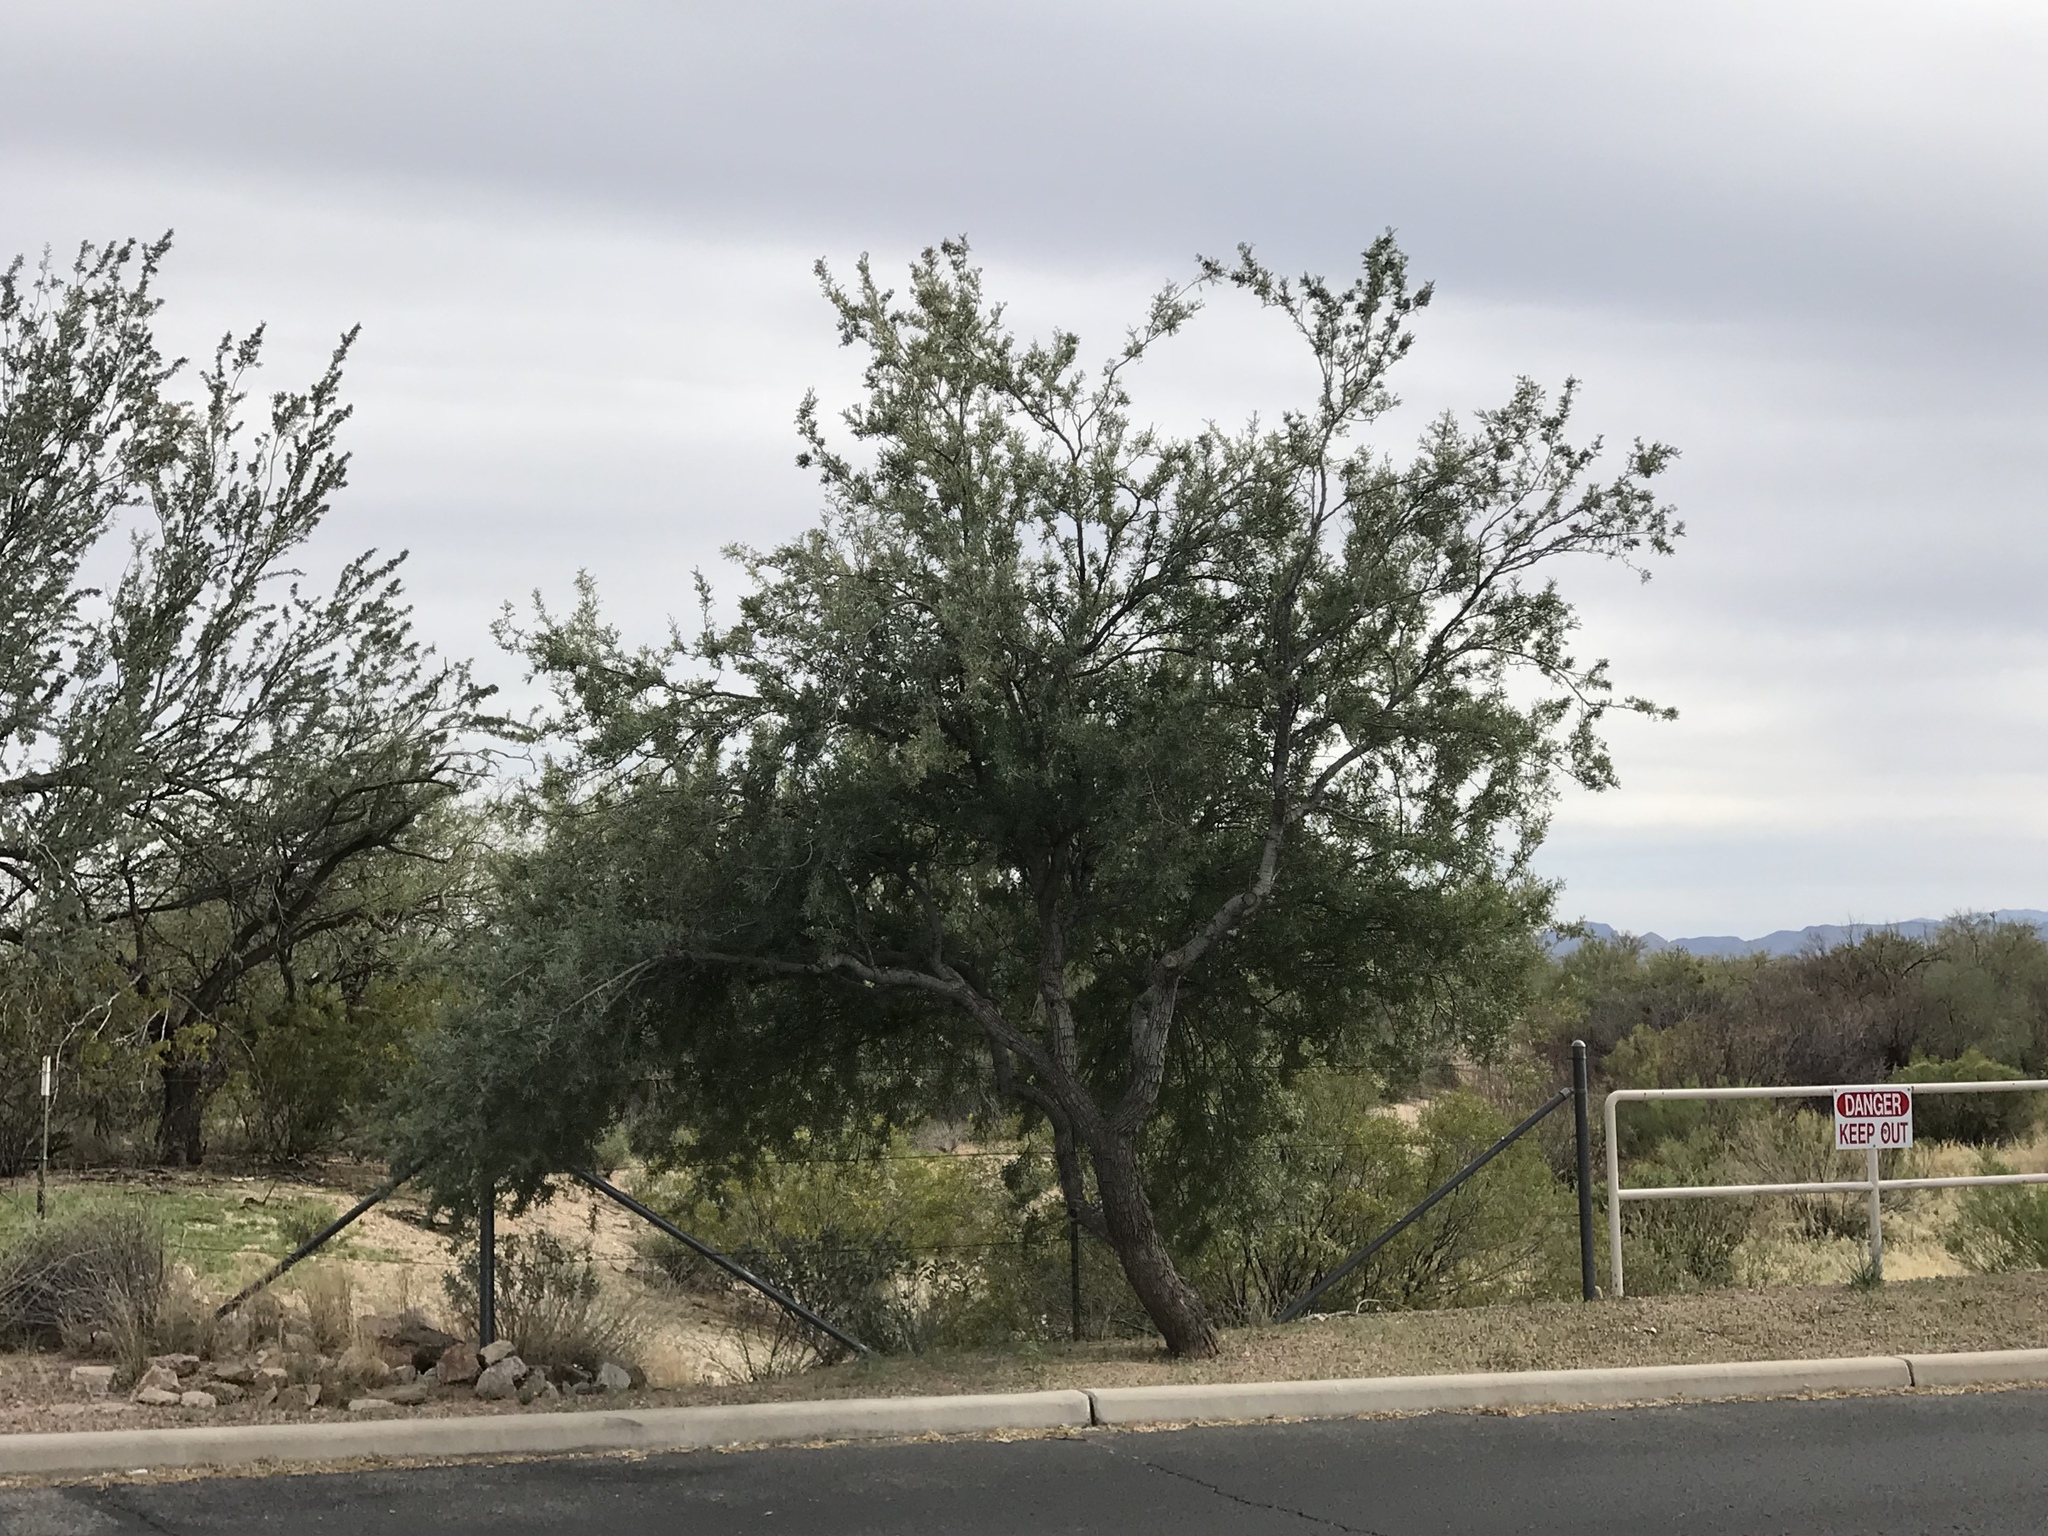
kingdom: Plantae
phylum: Tracheophyta
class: Magnoliopsida
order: Fabales
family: Fabaceae
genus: Olneya
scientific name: Olneya tesota
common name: Desert ironwood
